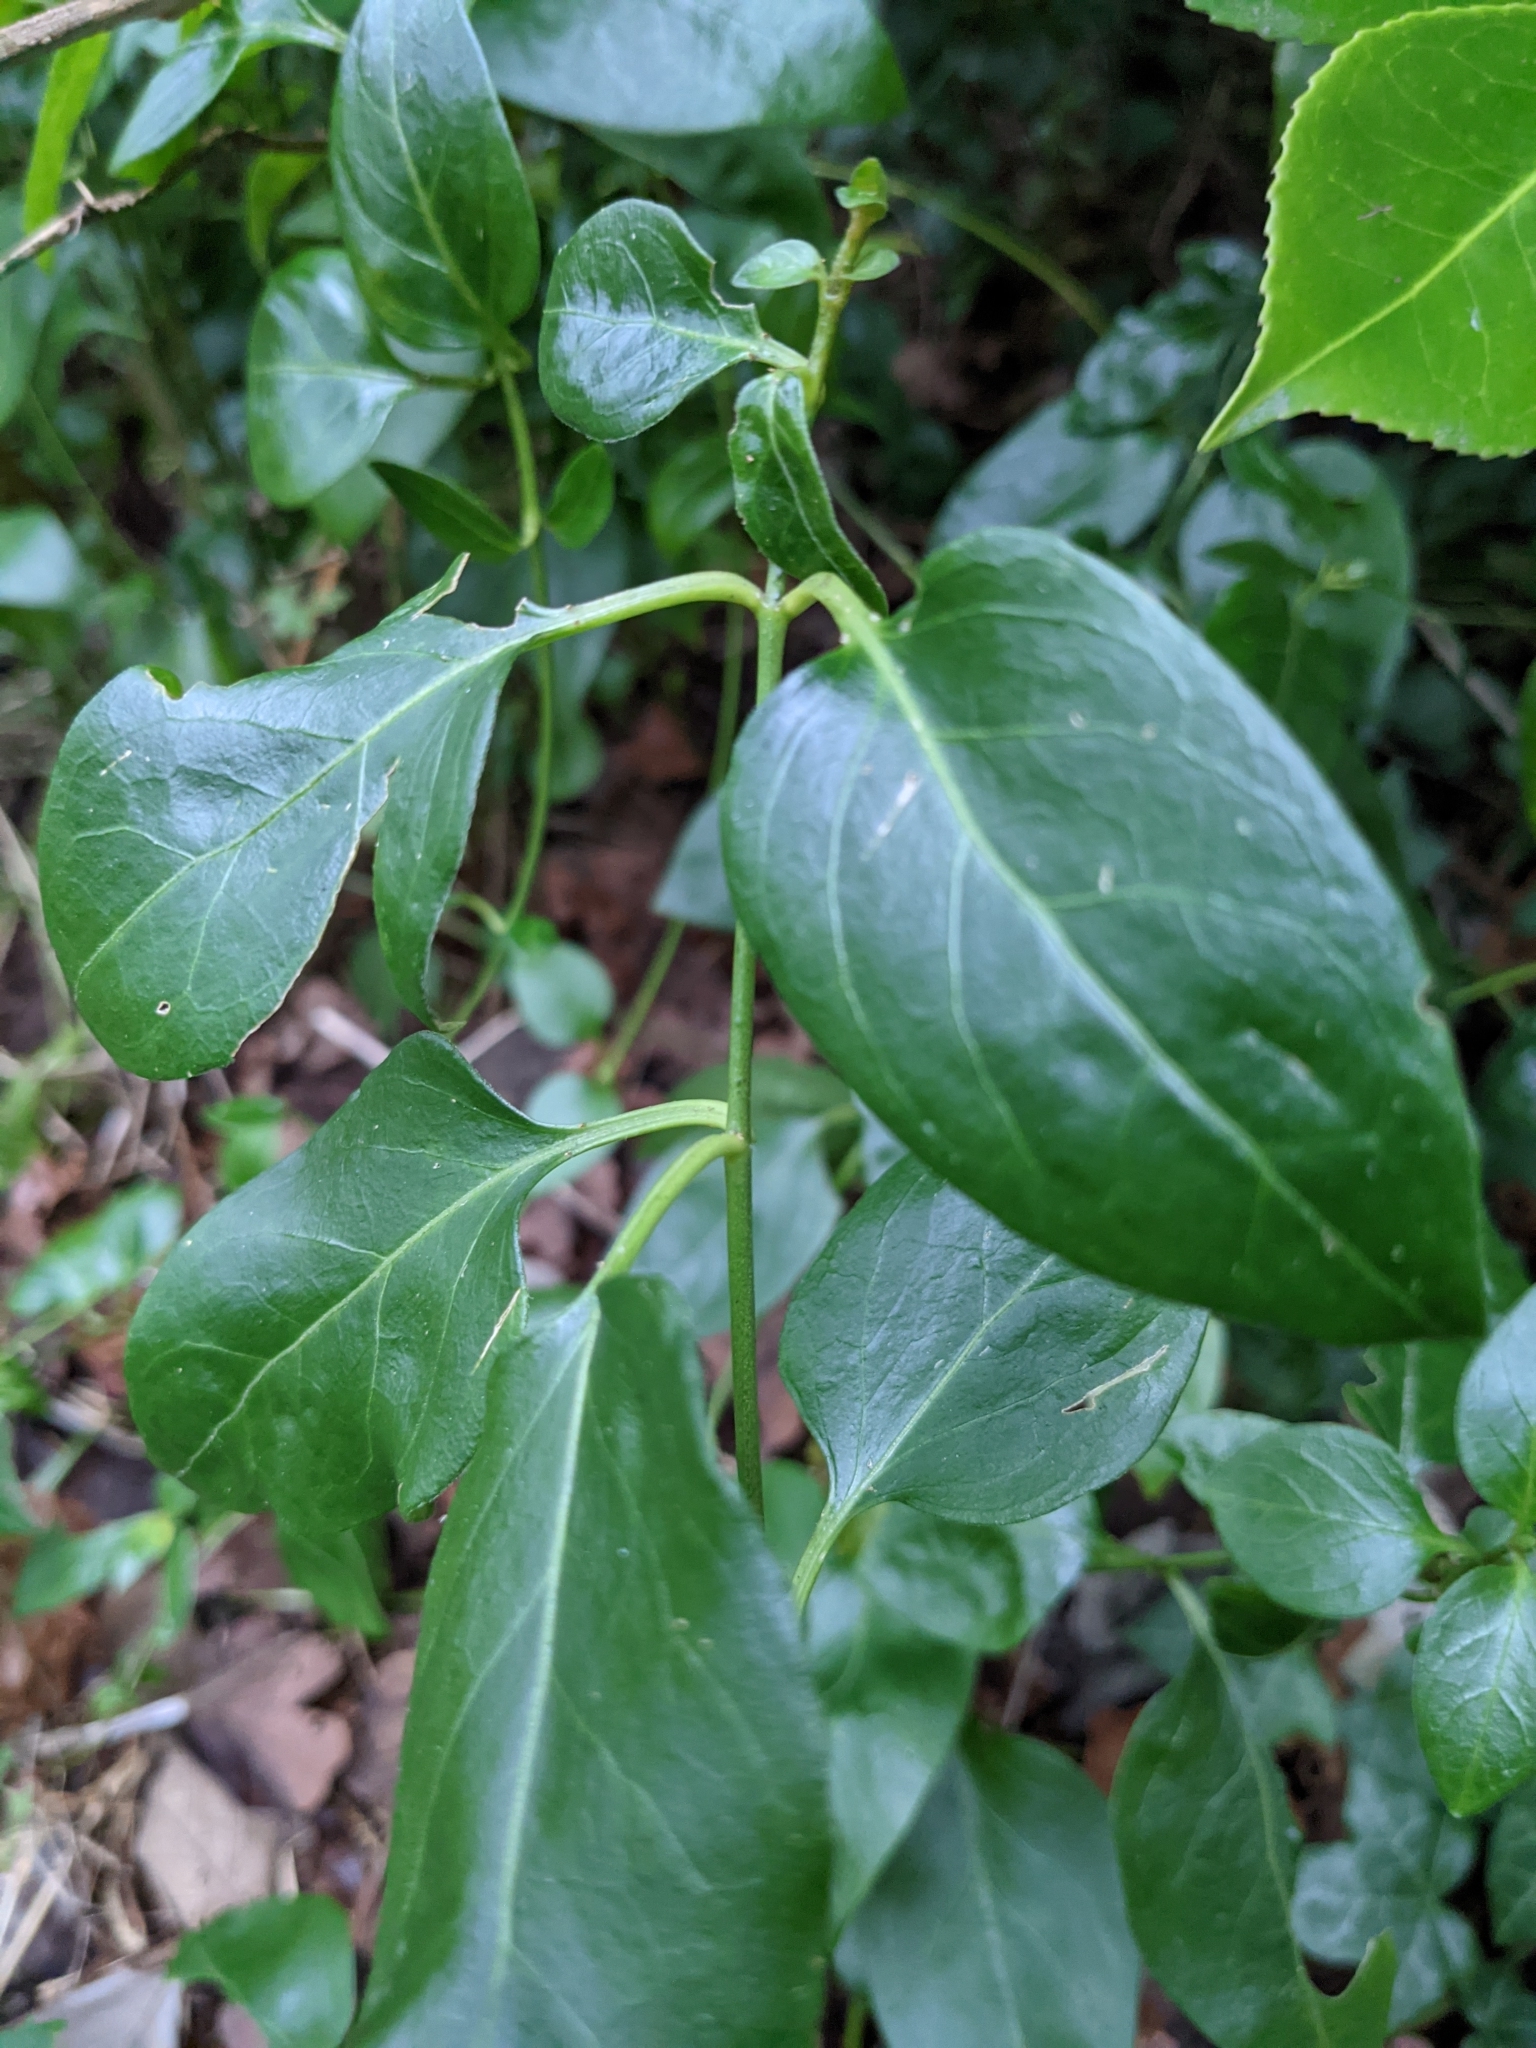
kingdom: Plantae
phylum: Tracheophyta
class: Magnoliopsida
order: Gentianales
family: Apocynaceae
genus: Vinca
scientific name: Vinca major
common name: Greater periwinkle
